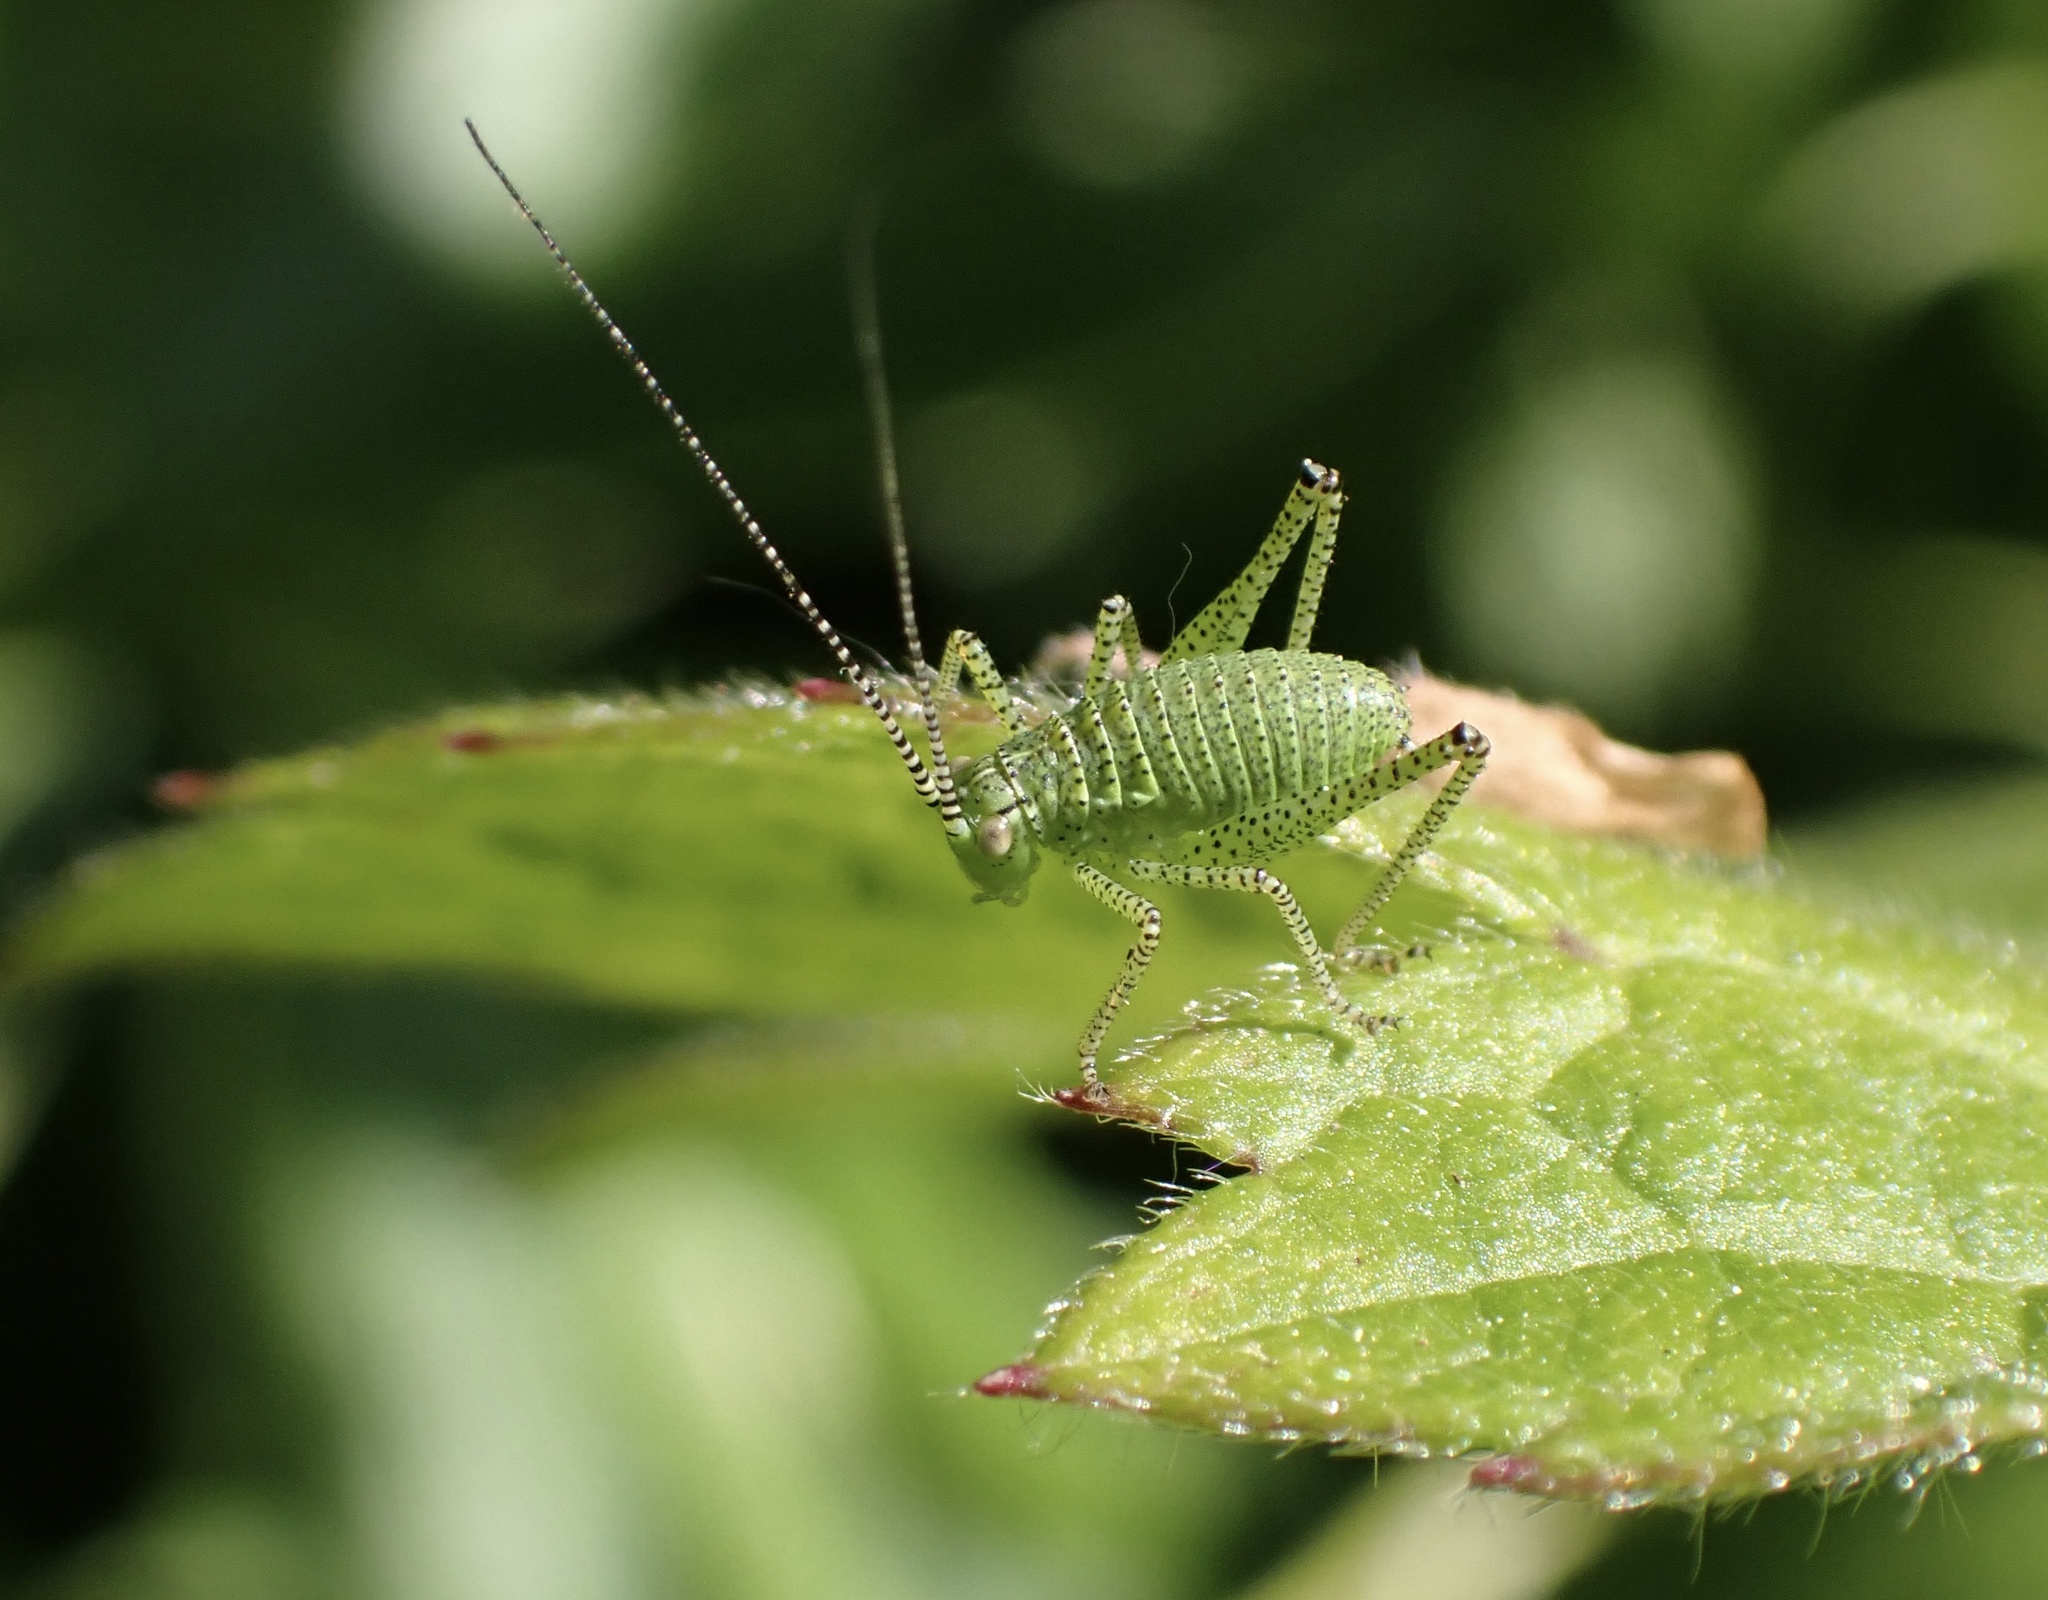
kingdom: Animalia
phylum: Arthropoda
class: Insecta
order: Orthoptera
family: Tettigoniidae
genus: Leptophyes
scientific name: Leptophyes punctatissima
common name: Speckled bush-cricket
